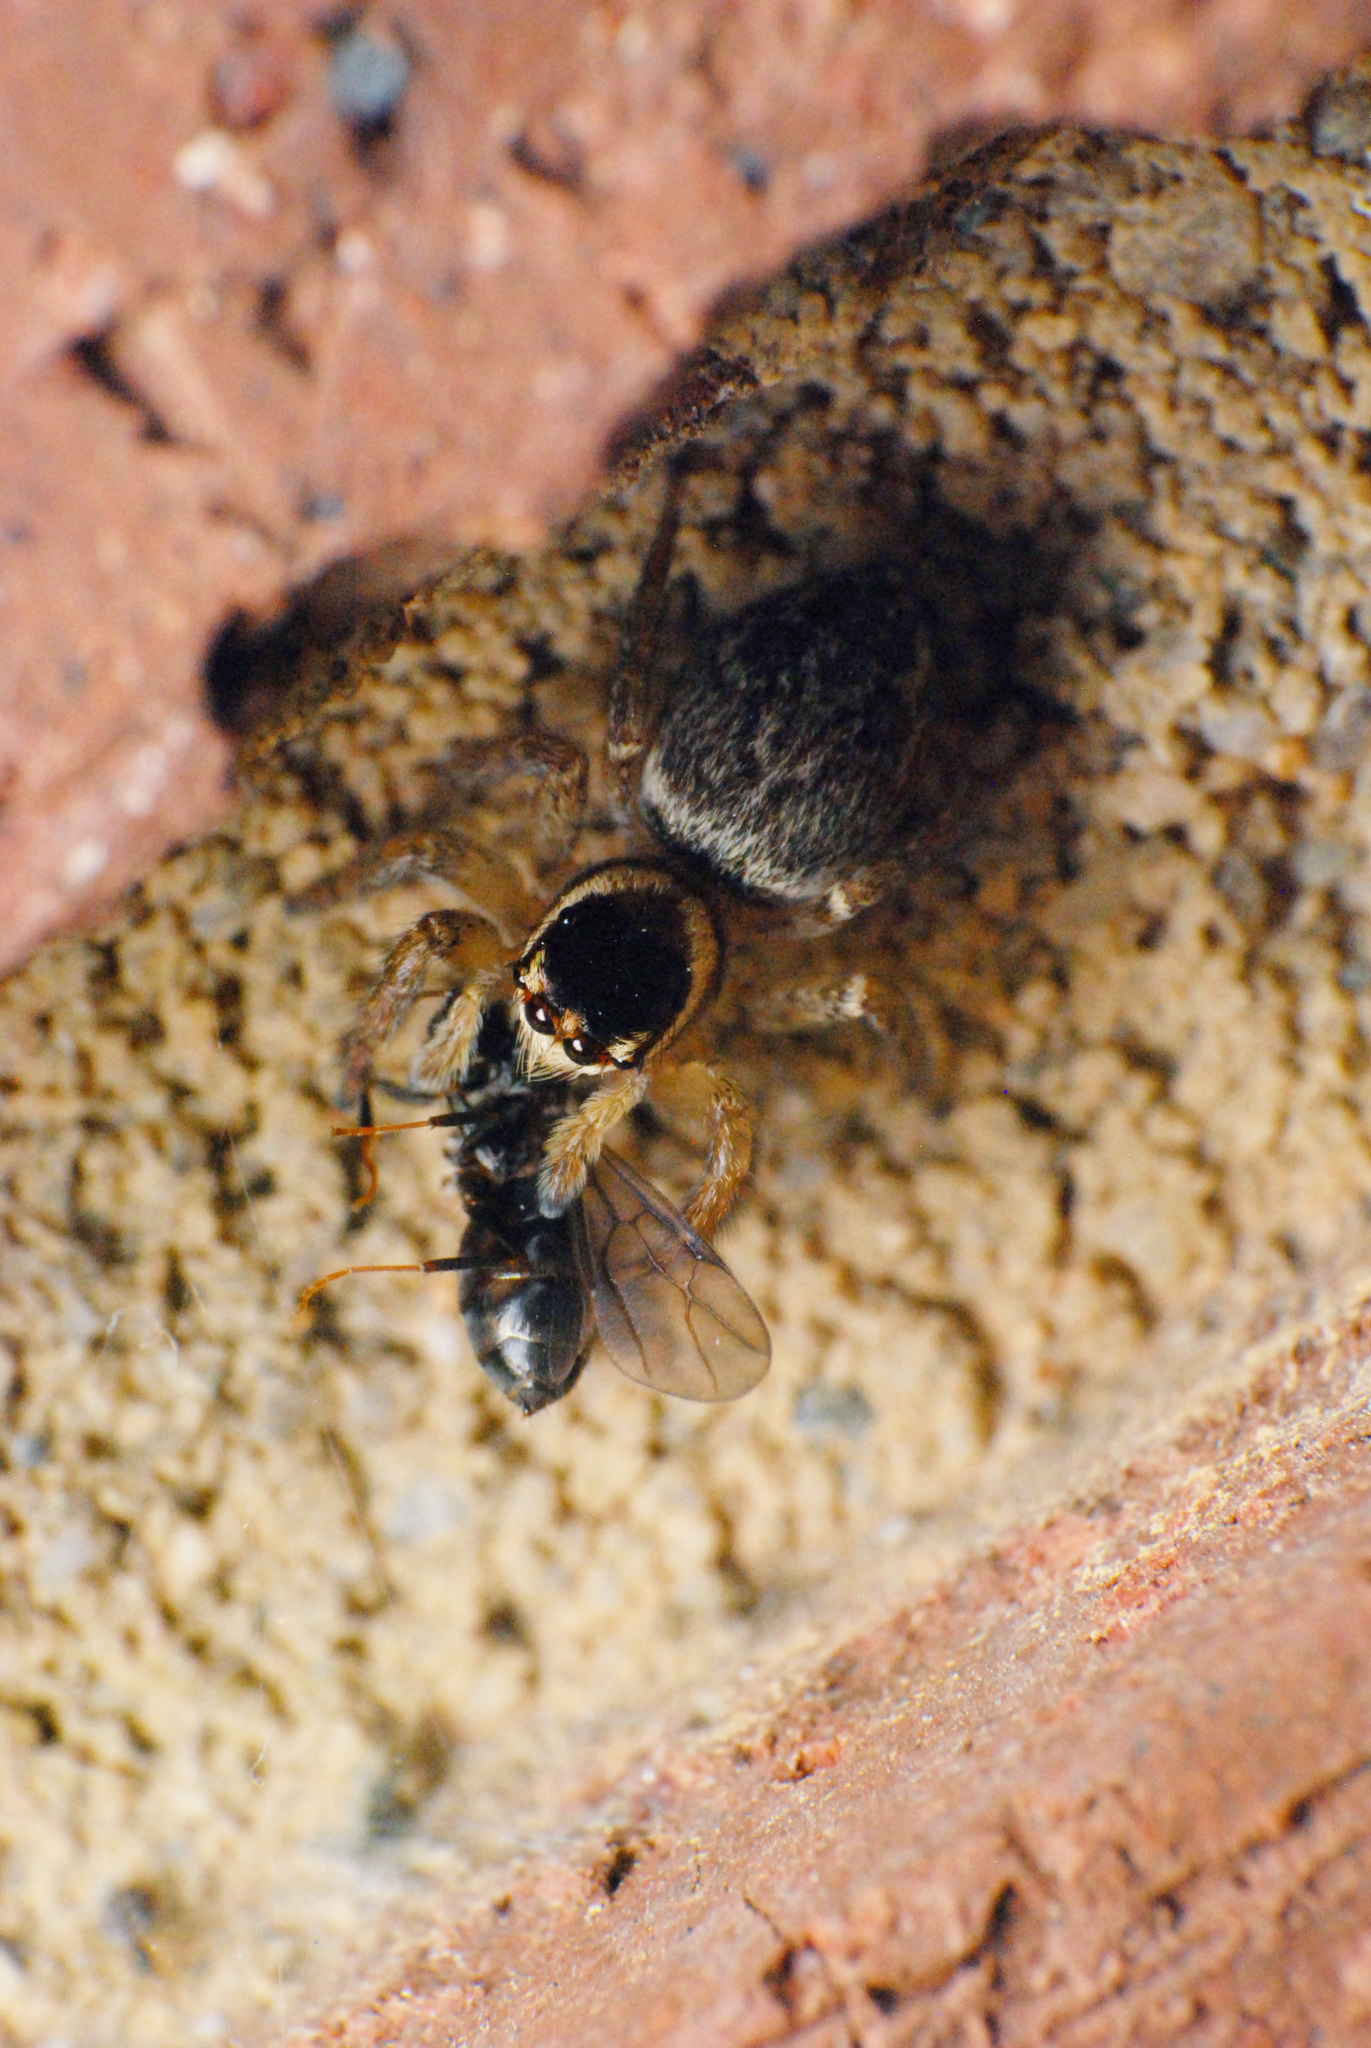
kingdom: Animalia
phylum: Arthropoda
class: Arachnida
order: Araneae
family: Salticidae
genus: Maratus
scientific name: Maratus griseus
